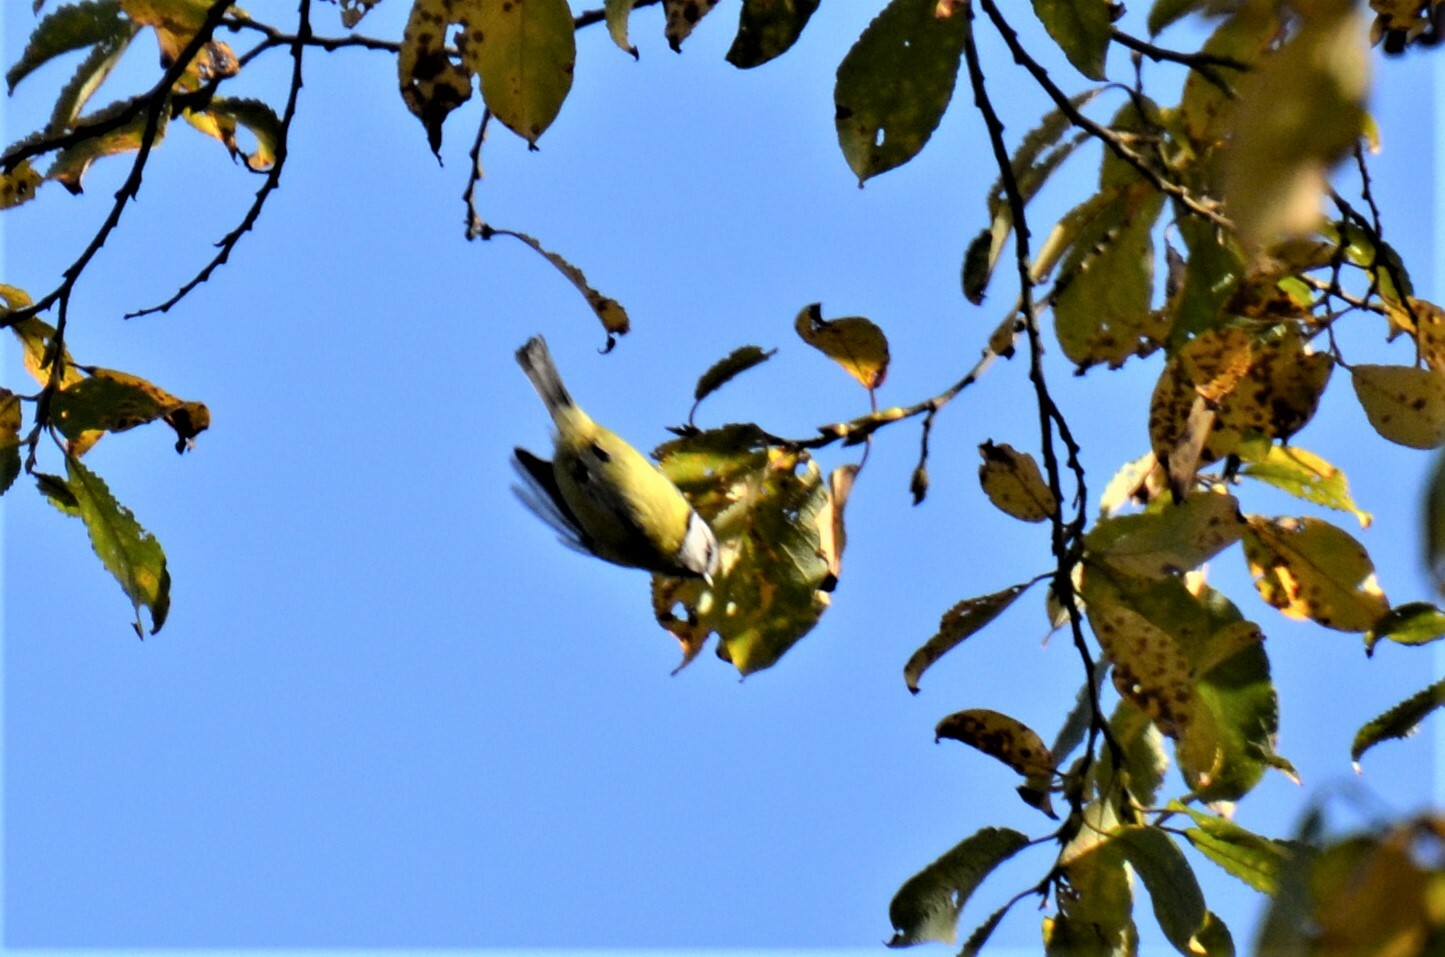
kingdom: Animalia
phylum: Chordata
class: Aves
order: Passeriformes
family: Paridae
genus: Cyanistes
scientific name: Cyanistes caeruleus
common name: Eurasian blue tit
